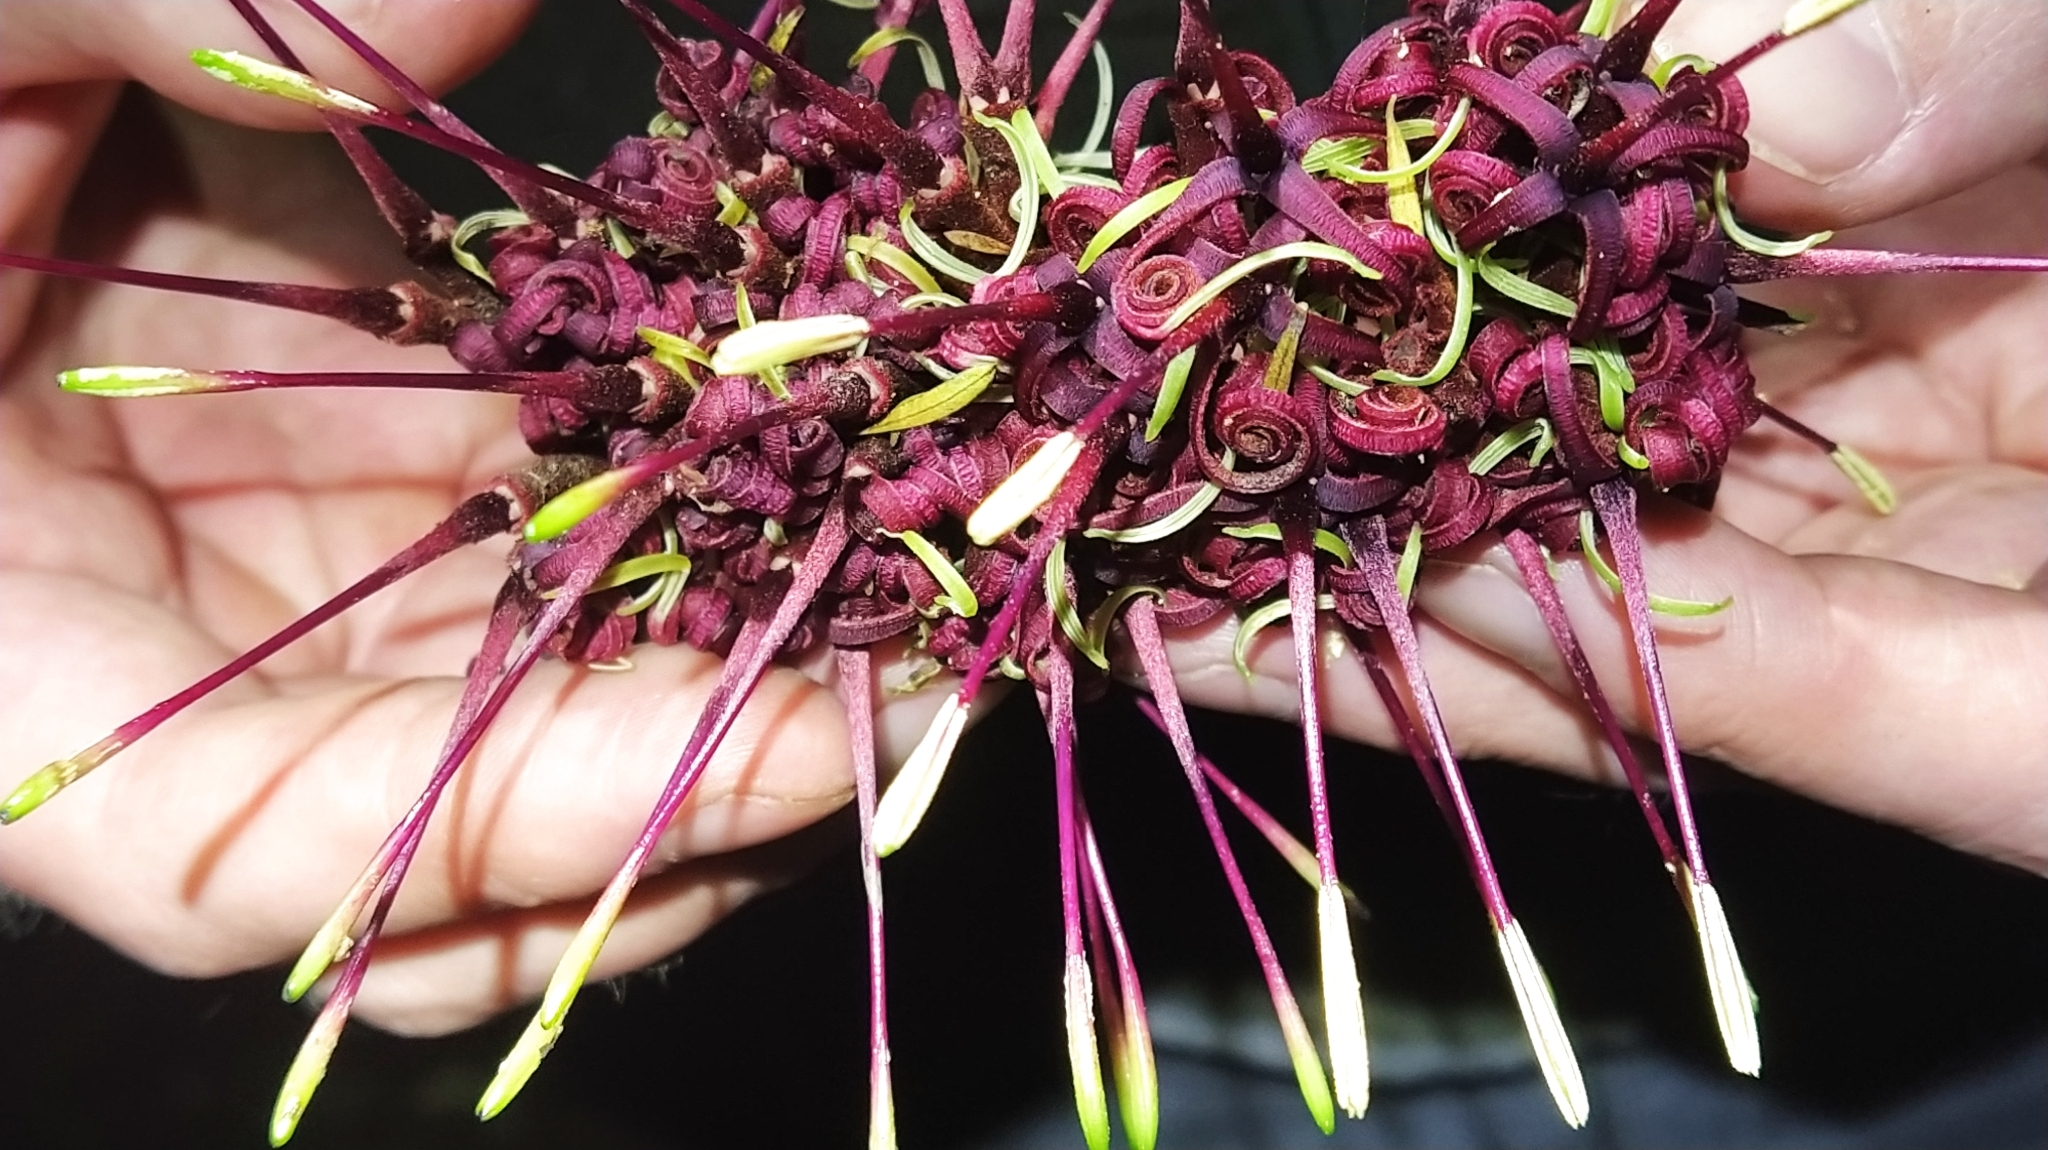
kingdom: Plantae
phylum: Tracheophyta
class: Magnoliopsida
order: Proteales
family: Proteaceae
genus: Knightia
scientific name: Knightia excelsa
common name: New zealand-honeysuckle
